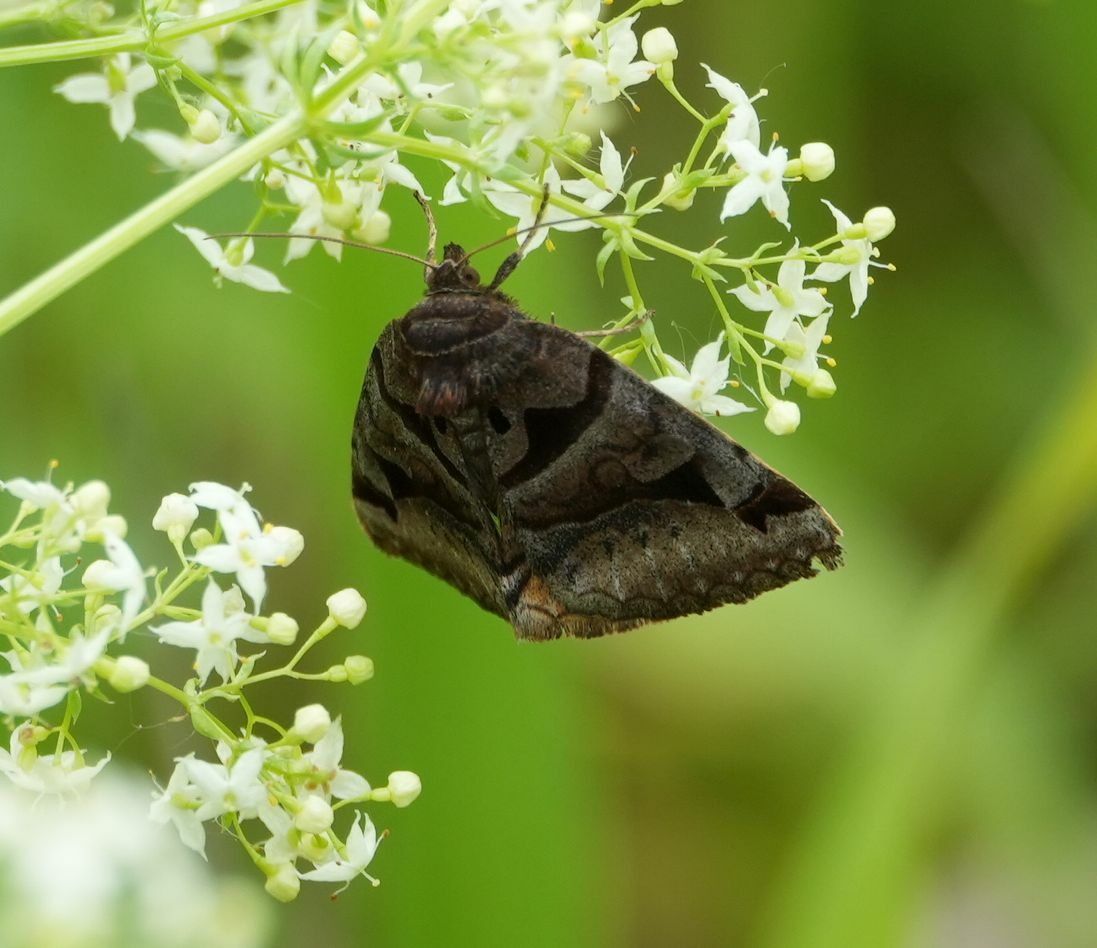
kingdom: Animalia
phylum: Arthropoda
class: Insecta
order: Lepidoptera
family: Erebidae
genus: Euclidia
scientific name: Euclidia cuspidea
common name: Toothed somberwing
